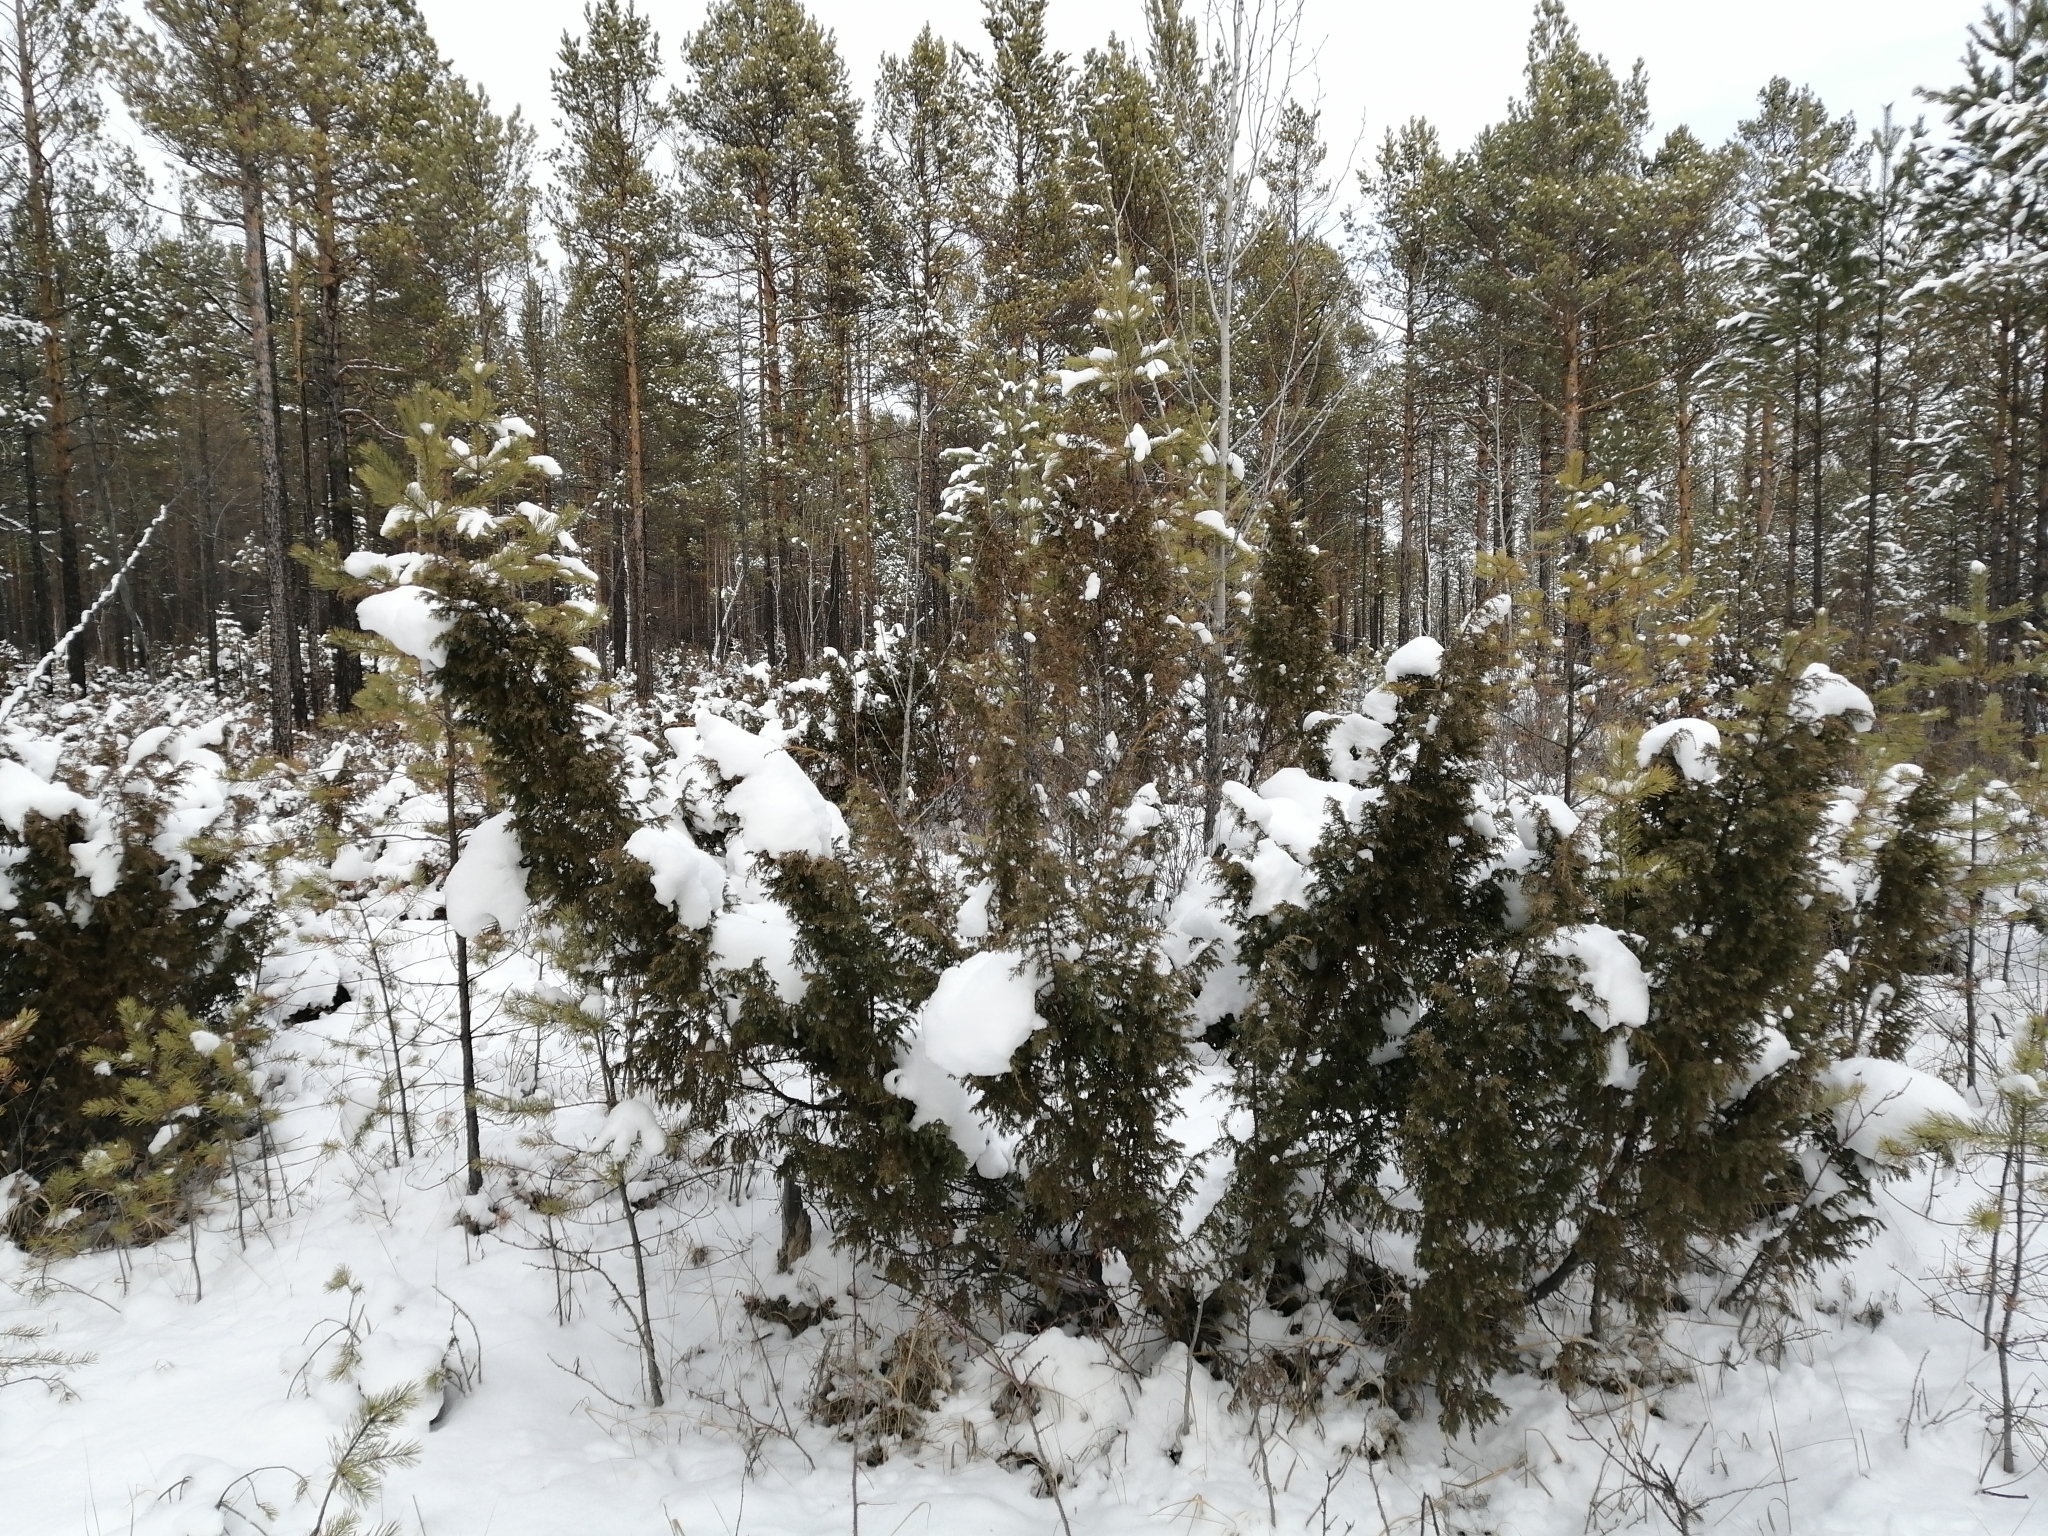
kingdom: Plantae
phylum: Tracheophyta
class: Pinopsida
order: Pinales
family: Cupressaceae
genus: Juniperus
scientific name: Juniperus communis
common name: Common juniper
